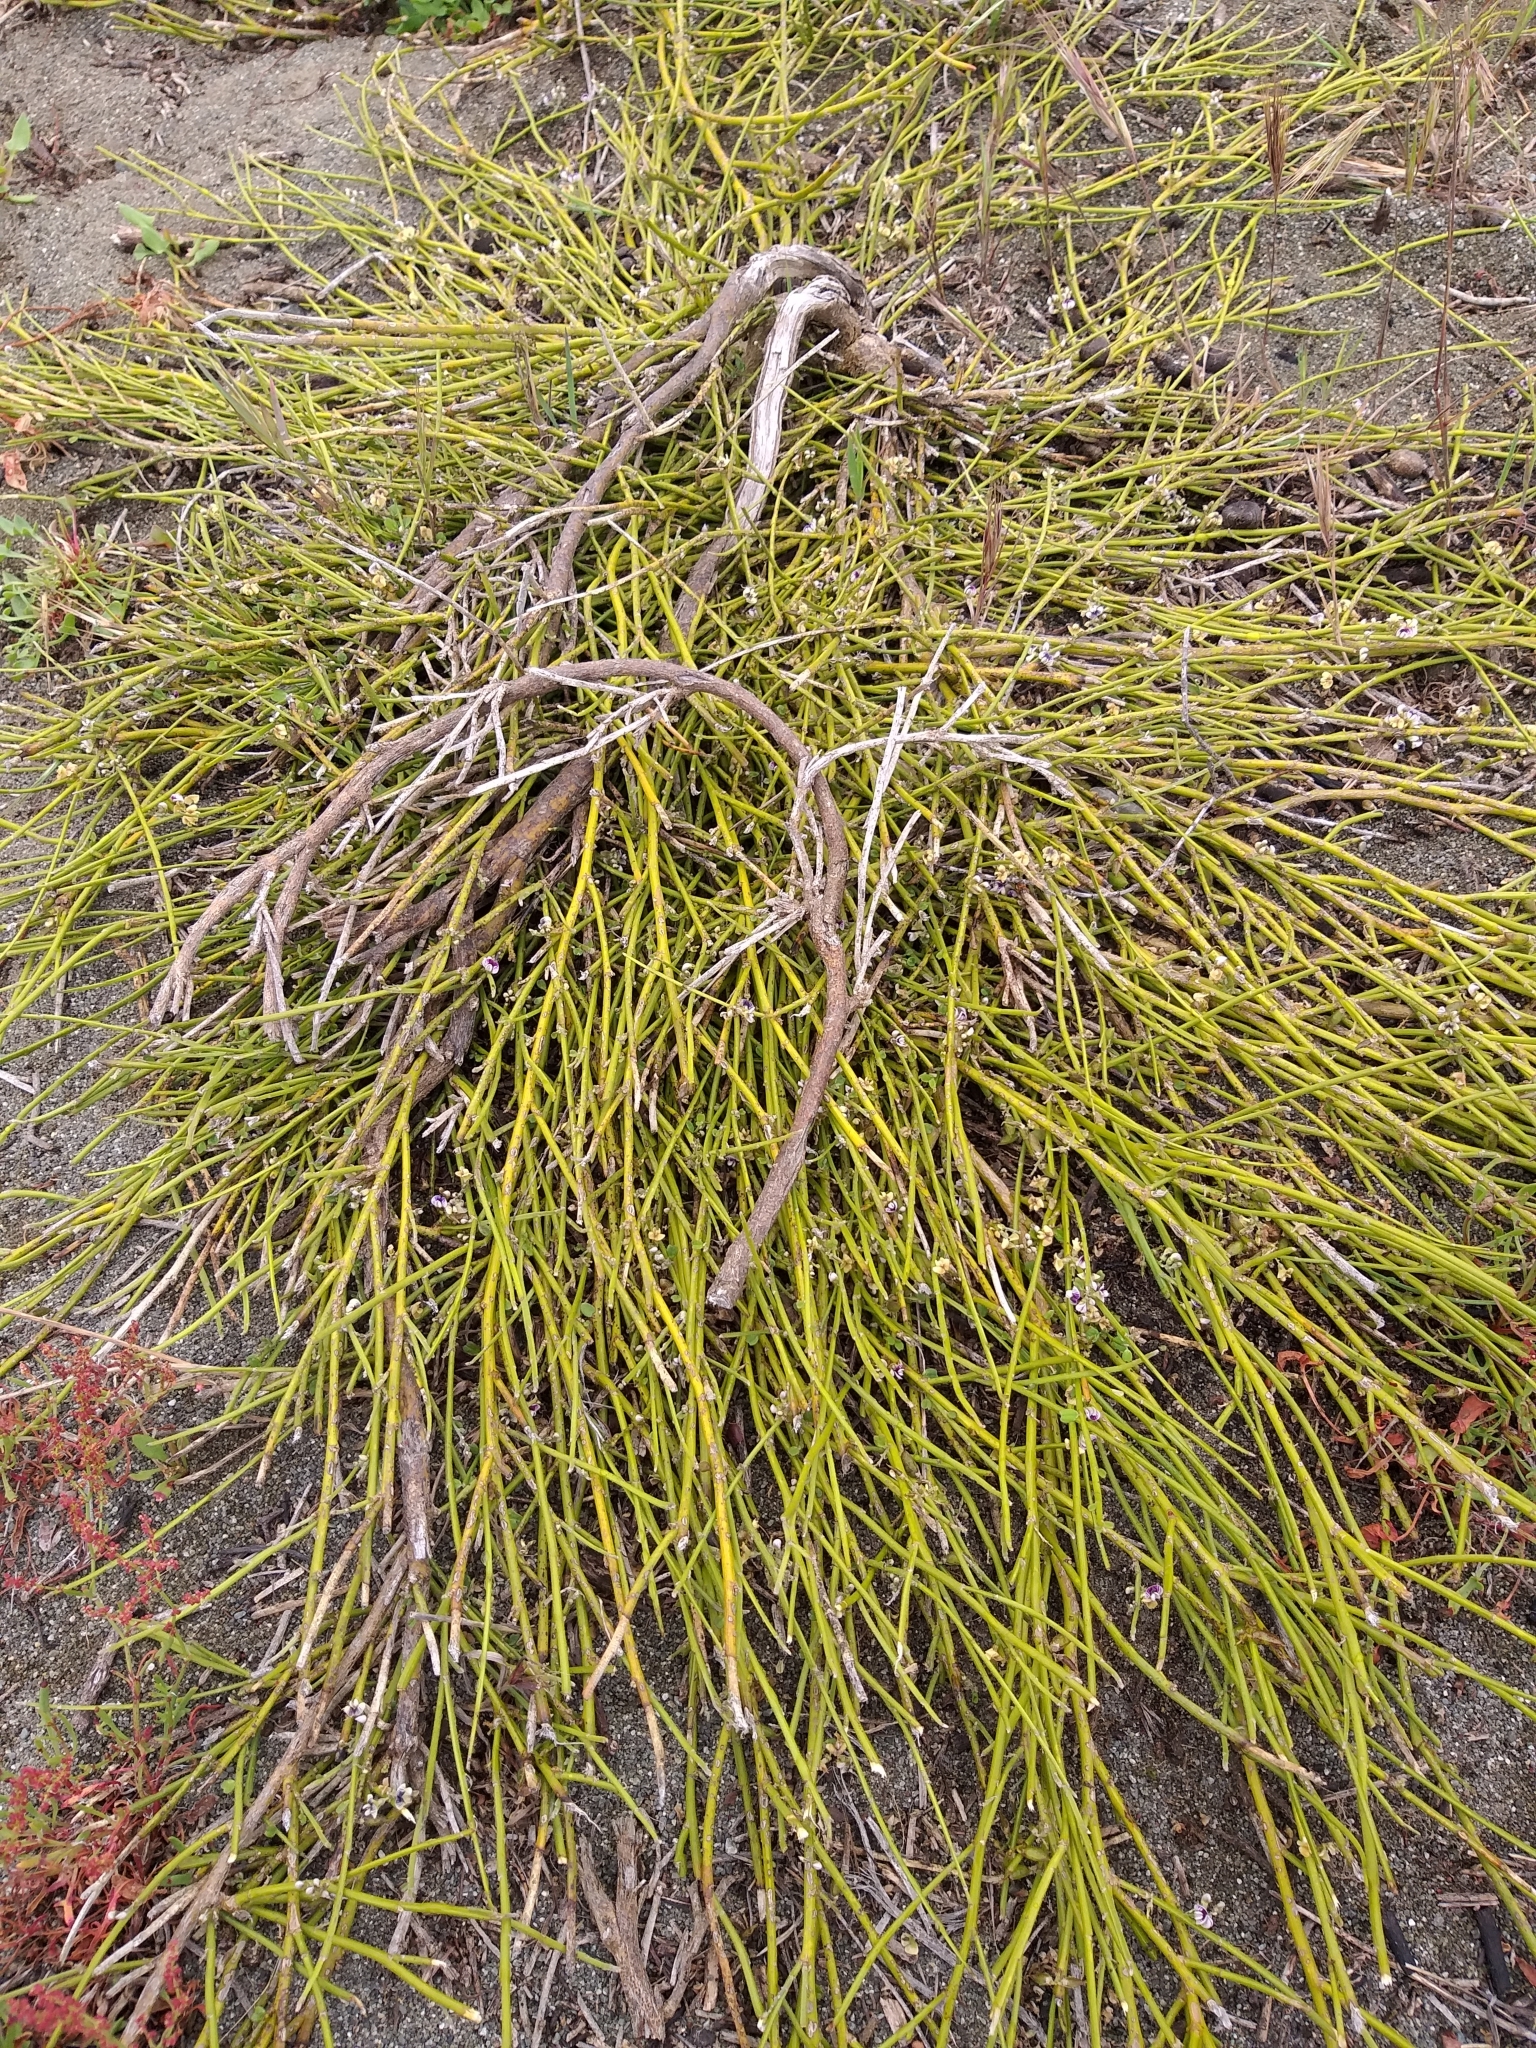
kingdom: Plantae
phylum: Tracheophyta
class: Magnoliopsida
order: Fabales
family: Fabaceae
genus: Carmichaelia
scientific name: Carmichaelia appressa
